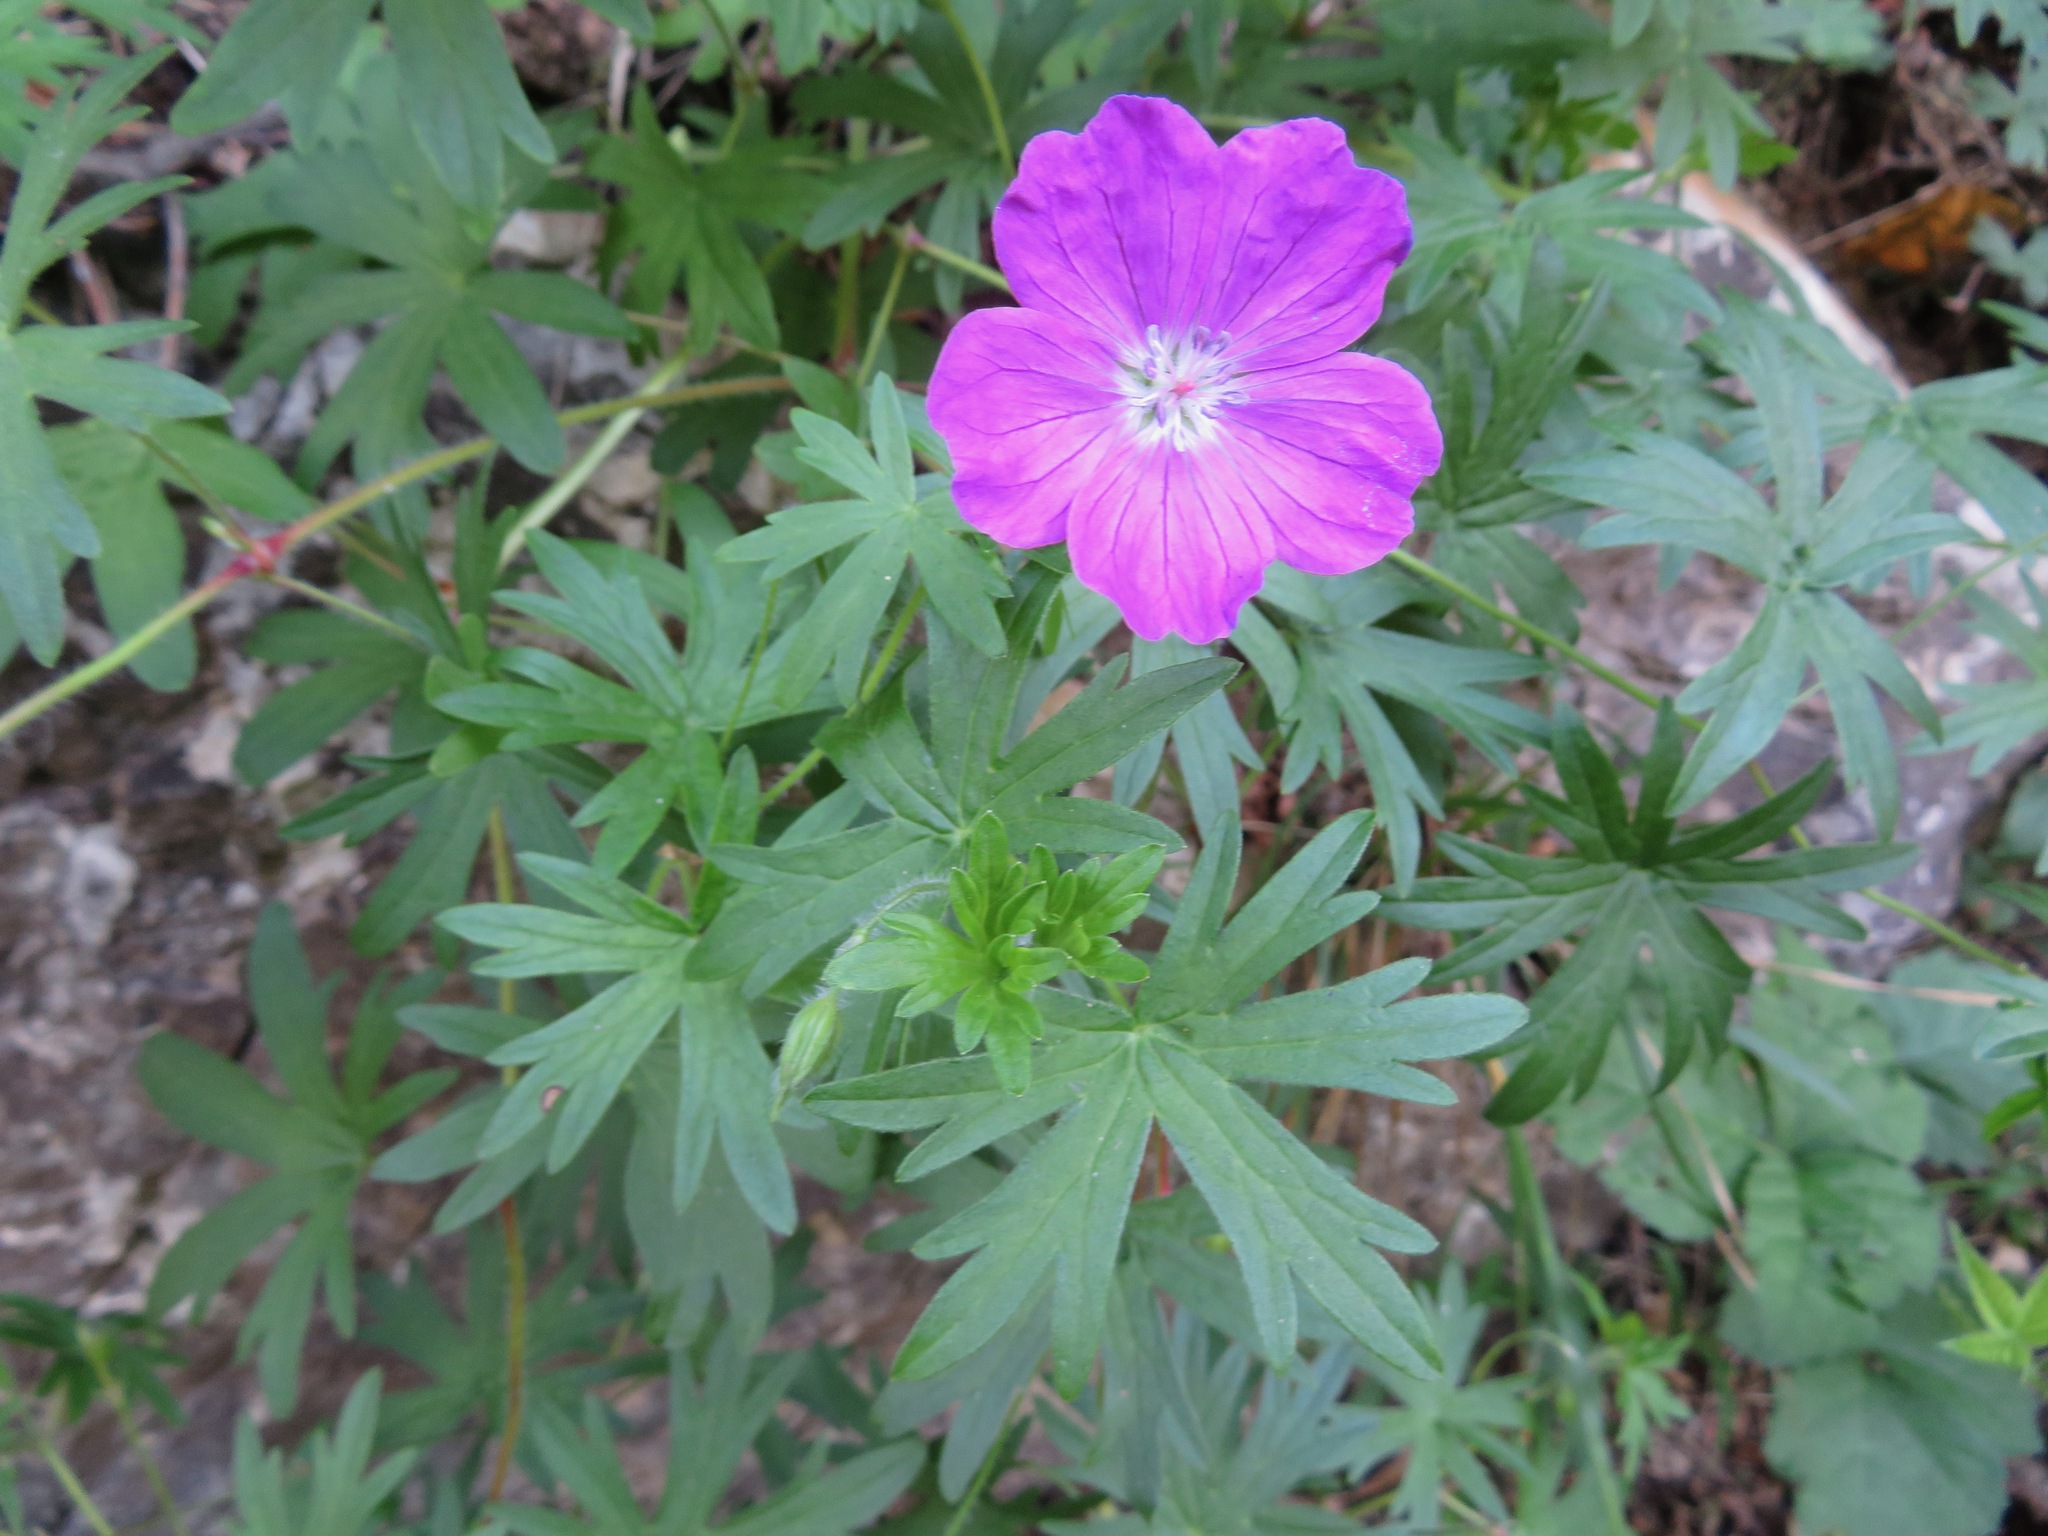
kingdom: Plantae
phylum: Tracheophyta
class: Magnoliopsida
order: Geraniales
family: Geraniaceae
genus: Geranium
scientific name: Geranium sanguineum
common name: Bloody crane's-bill
